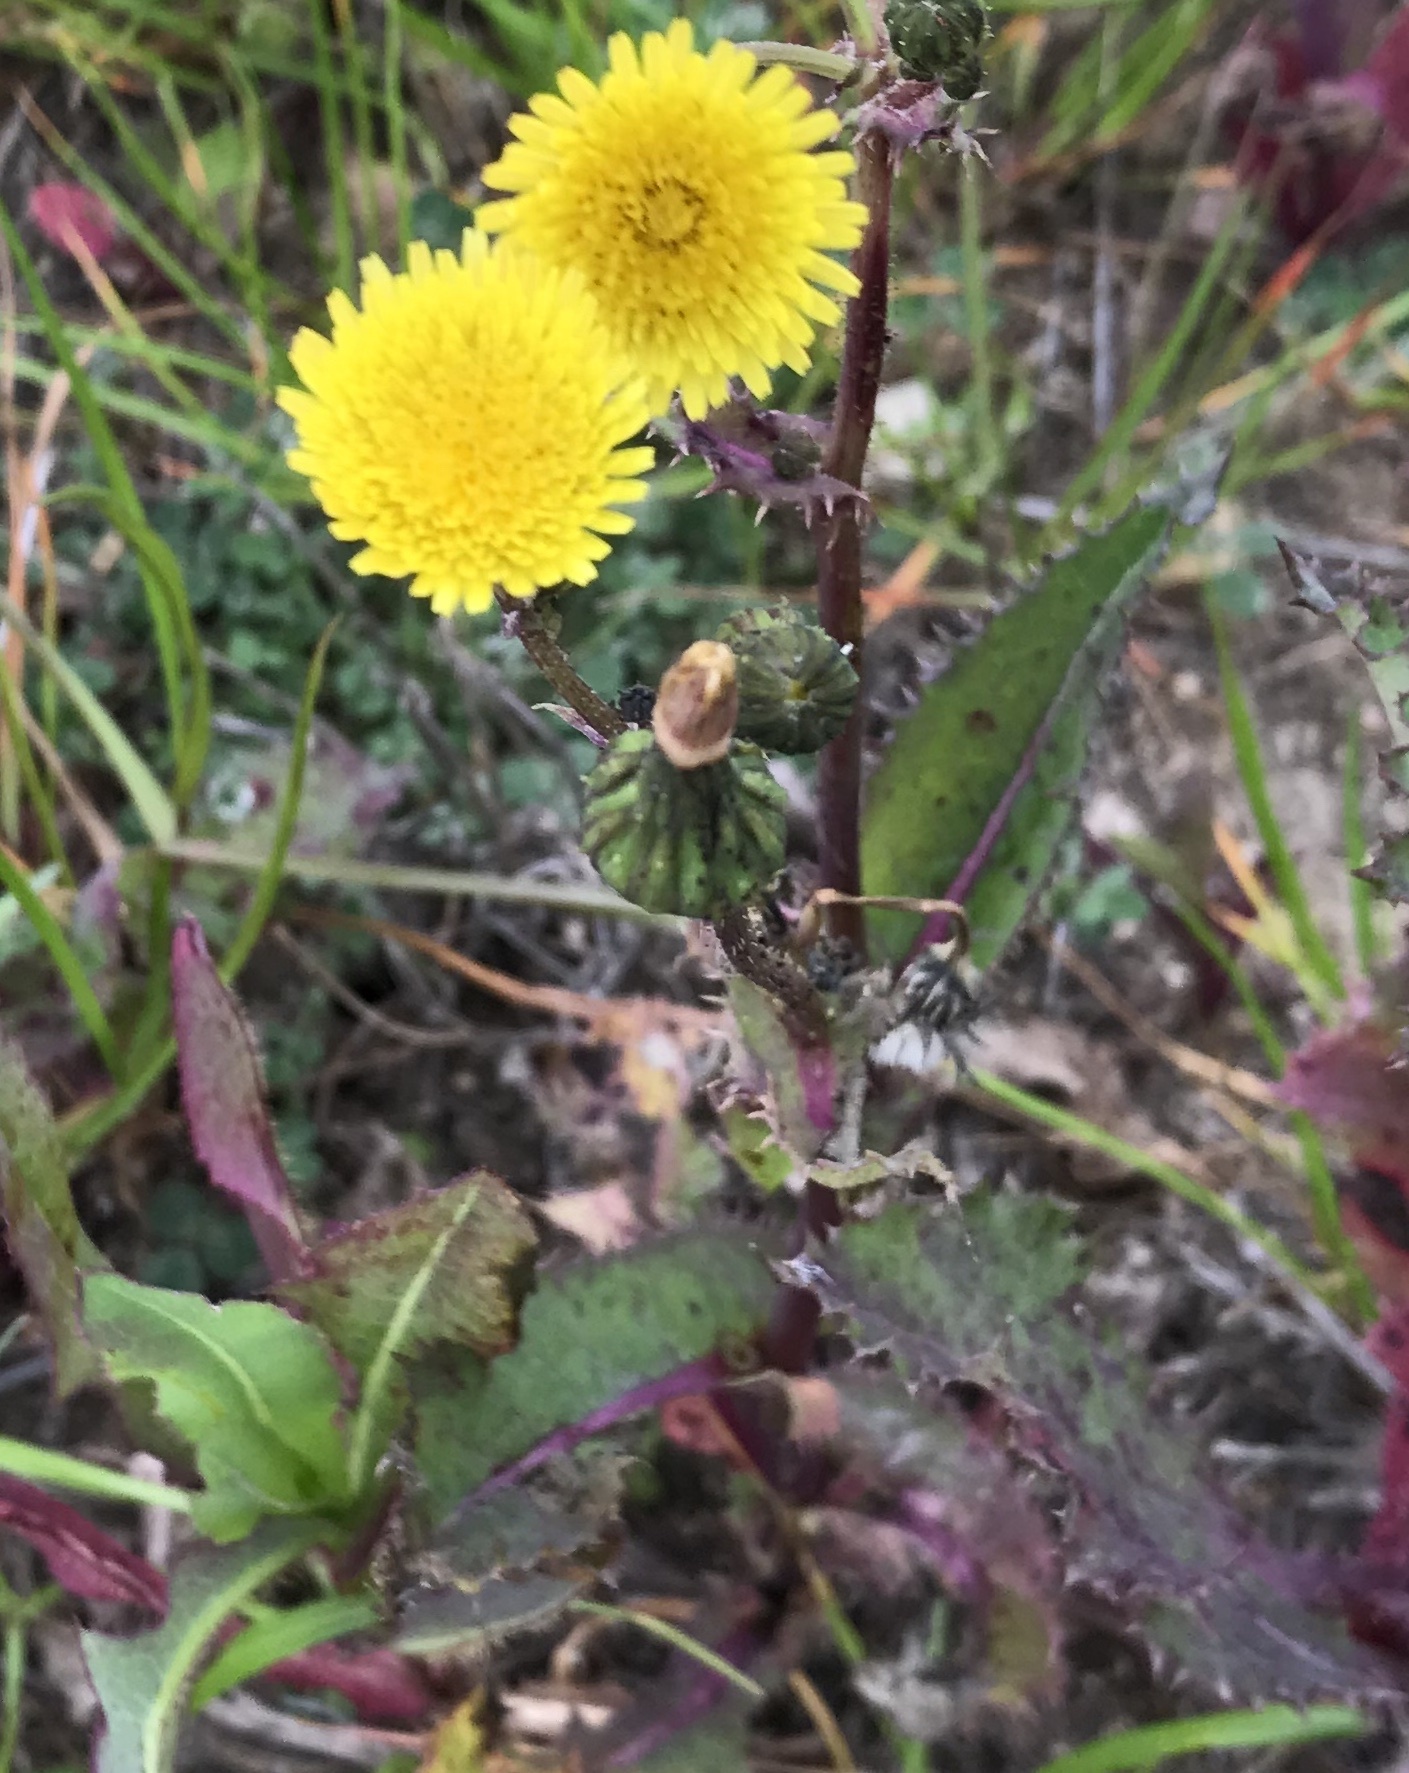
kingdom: Plantae
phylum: Tracheophyta
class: Magnoliopsida
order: Asterales
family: Asteraceae
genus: Sonchus
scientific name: Sonchus asper
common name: Prickly sow-thistle
